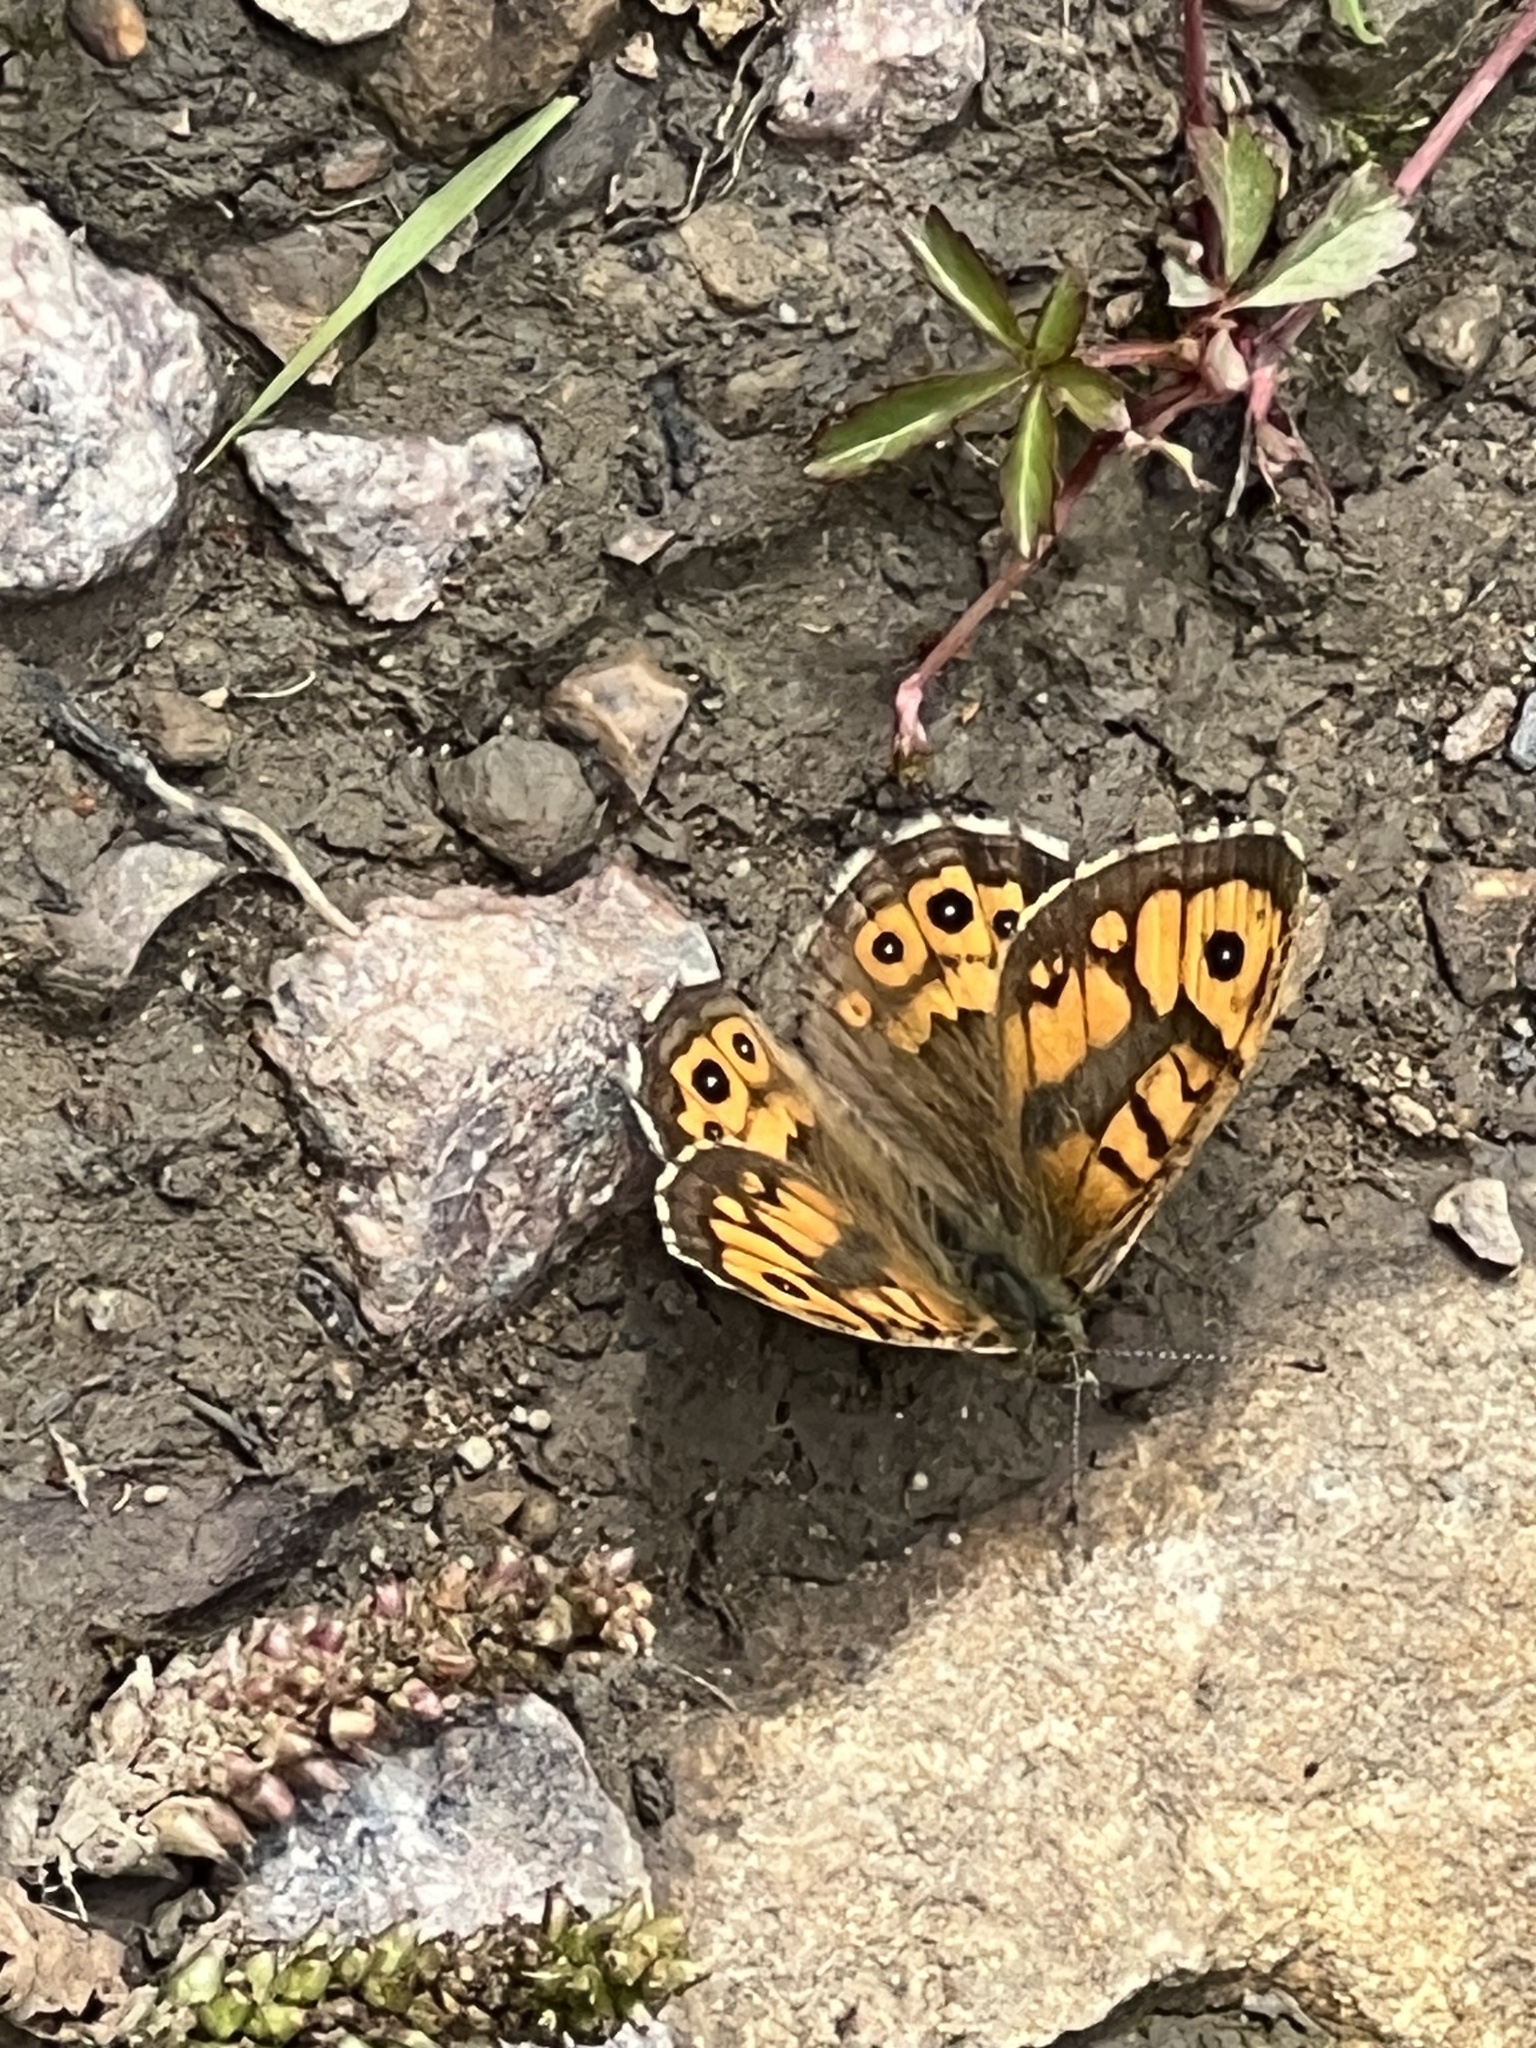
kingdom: Animalia
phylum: Arthropoda
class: Insecta
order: Lepidoptera
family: Nymphalidae
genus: Pararge
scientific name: Pararge Lasiommata megera
